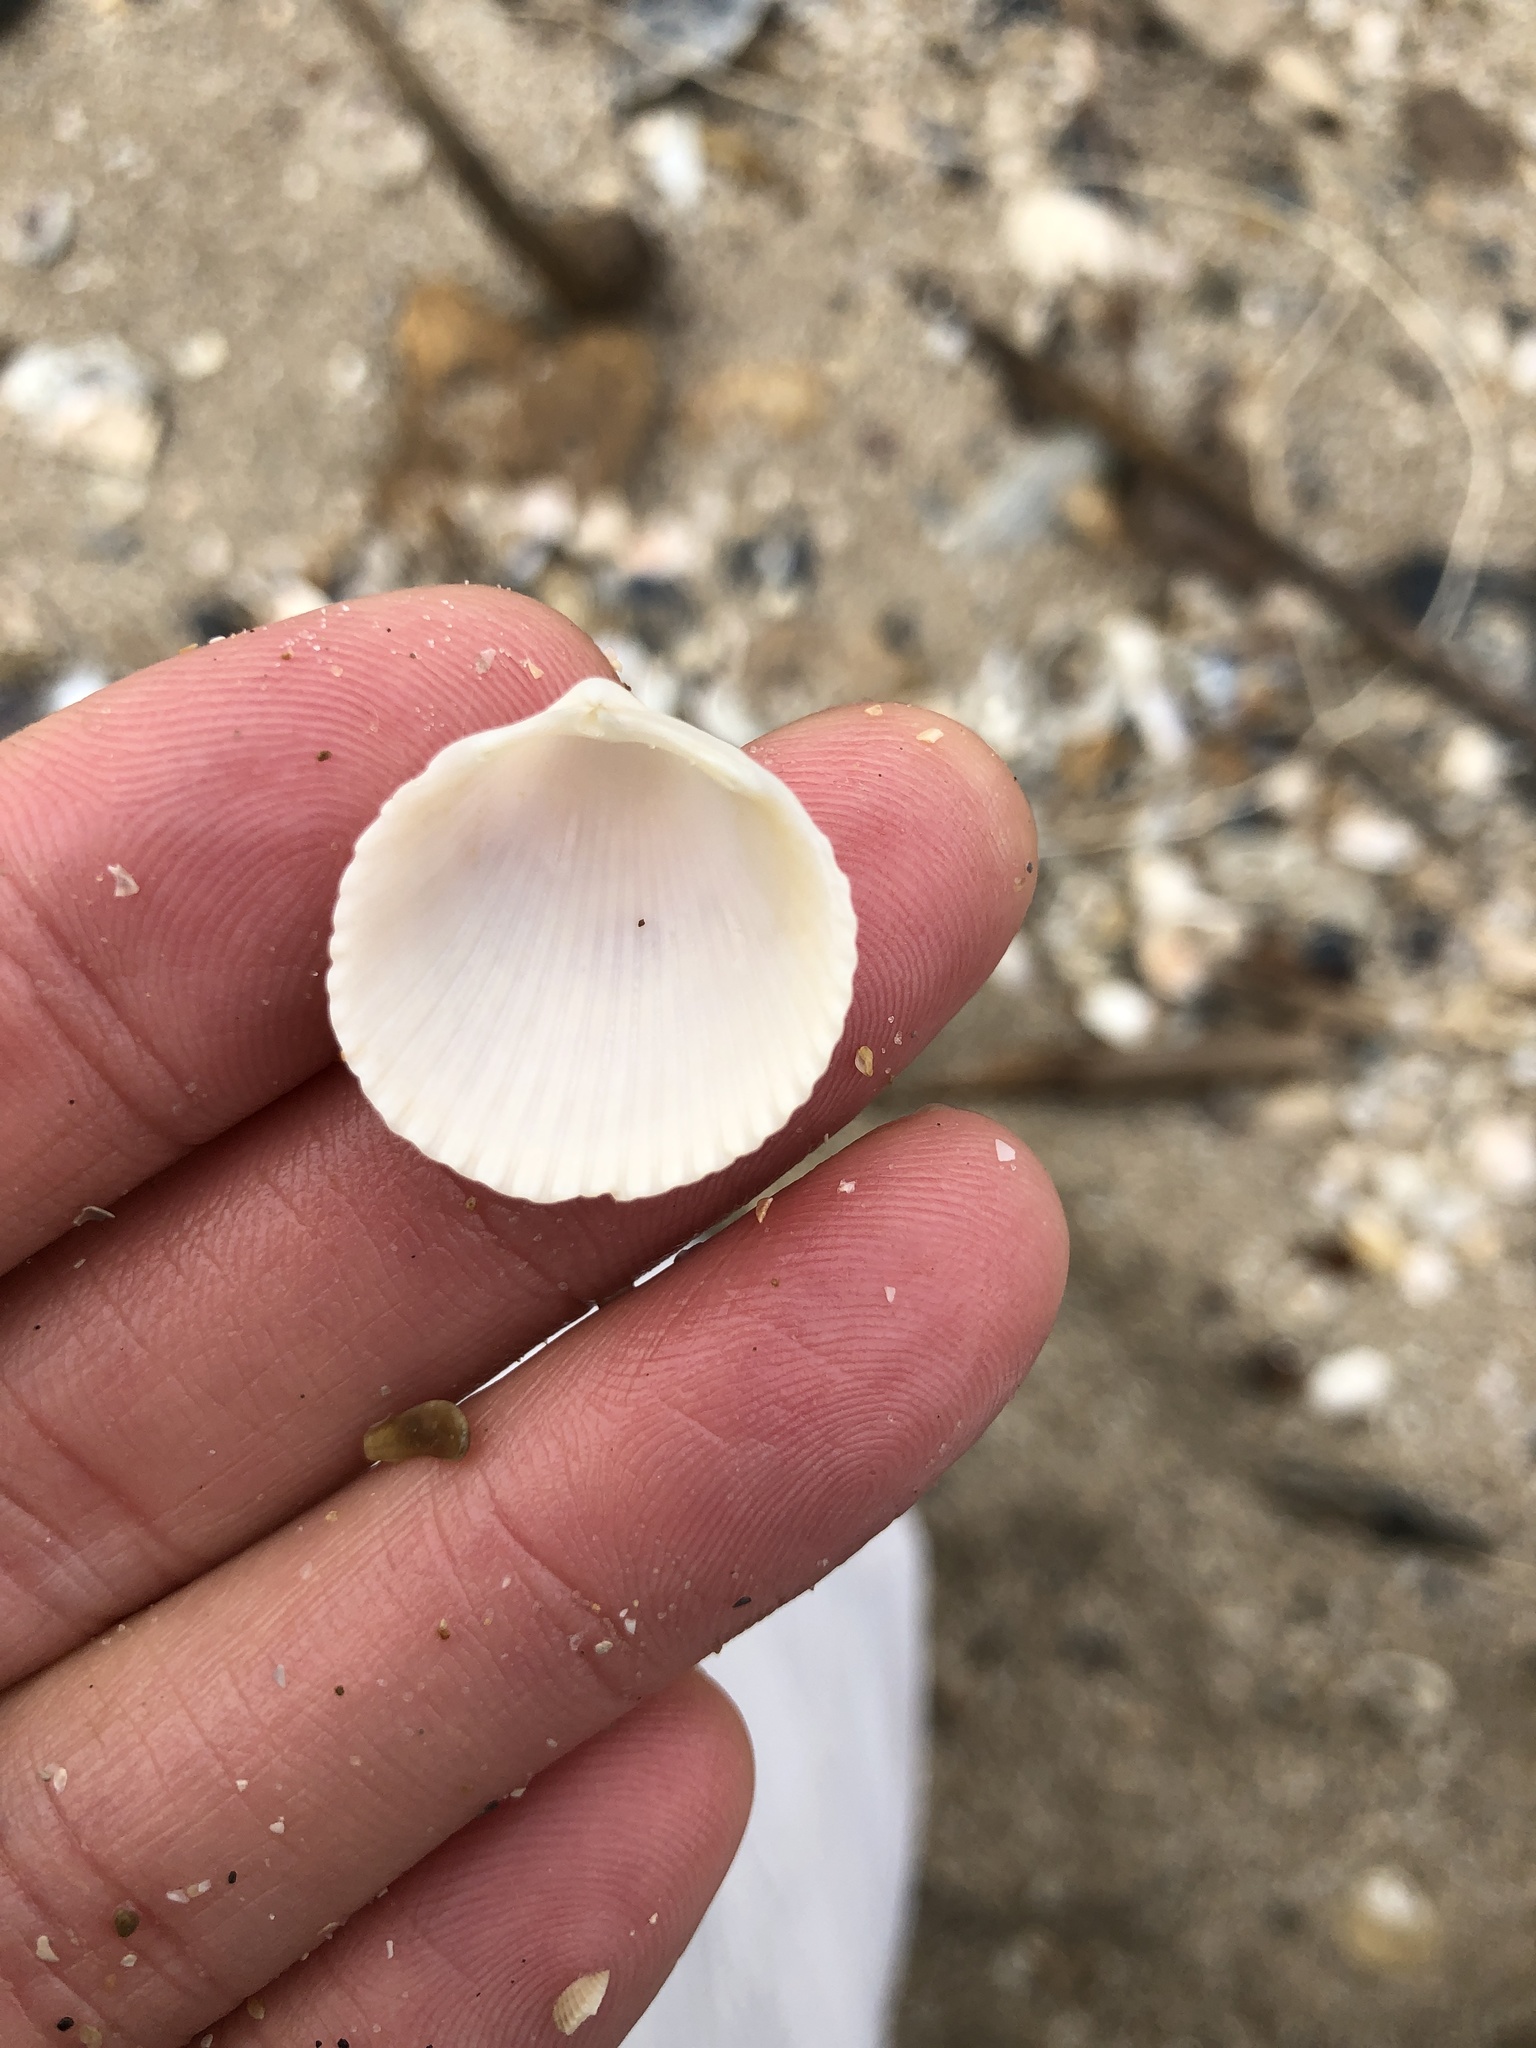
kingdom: Animalia
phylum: Mollusca
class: Bivalvia
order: Cardiida
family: Cardiidae
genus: Dallocardia
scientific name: Dallocardia muricata
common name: Yellow pricklycockle
